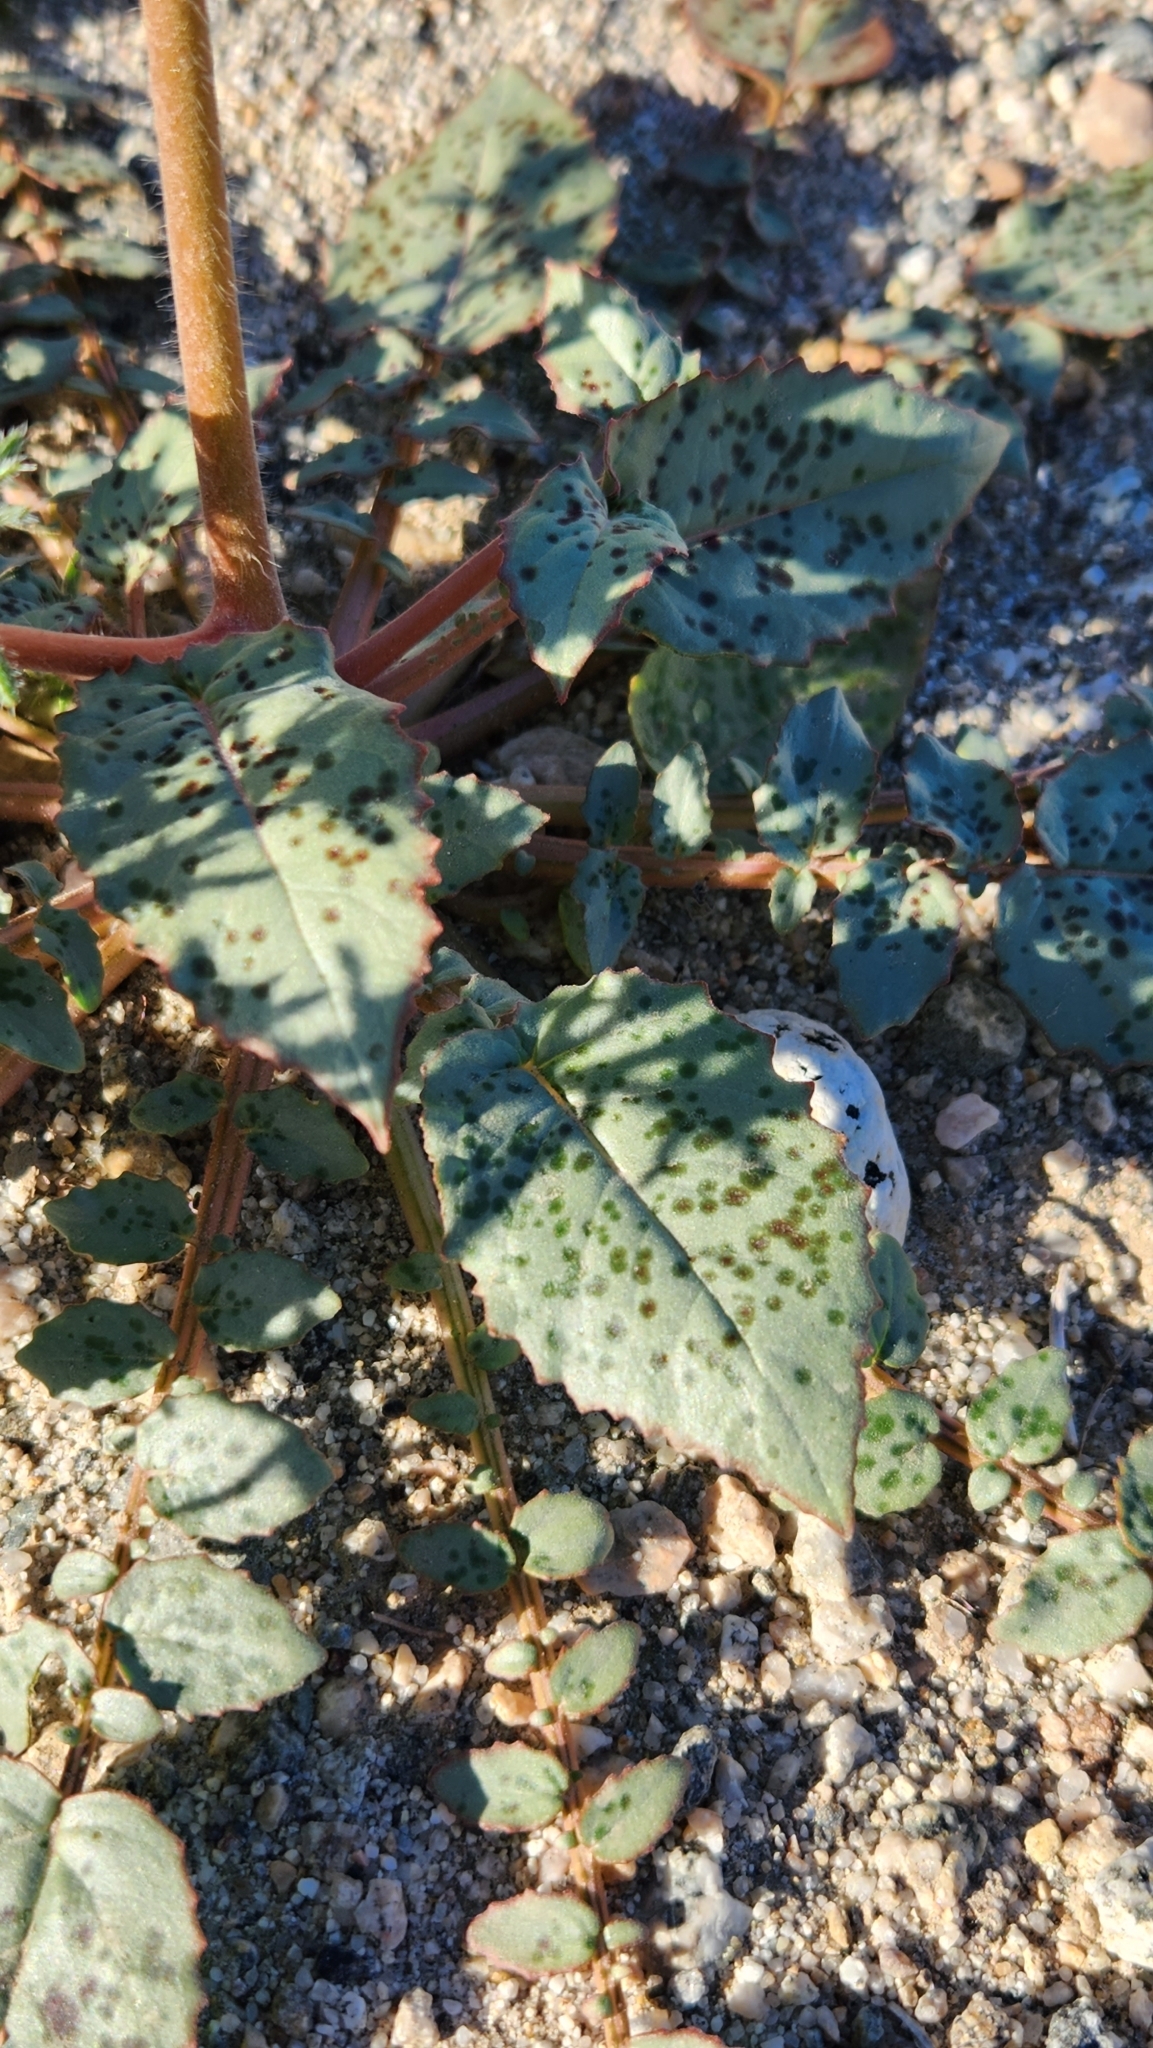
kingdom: Plantae
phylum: Tracheophyta
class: Magnoliopsida
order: Myrtales
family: Onagraceae
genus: Chylismia
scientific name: Chylismia brevipes
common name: Yellow cups
